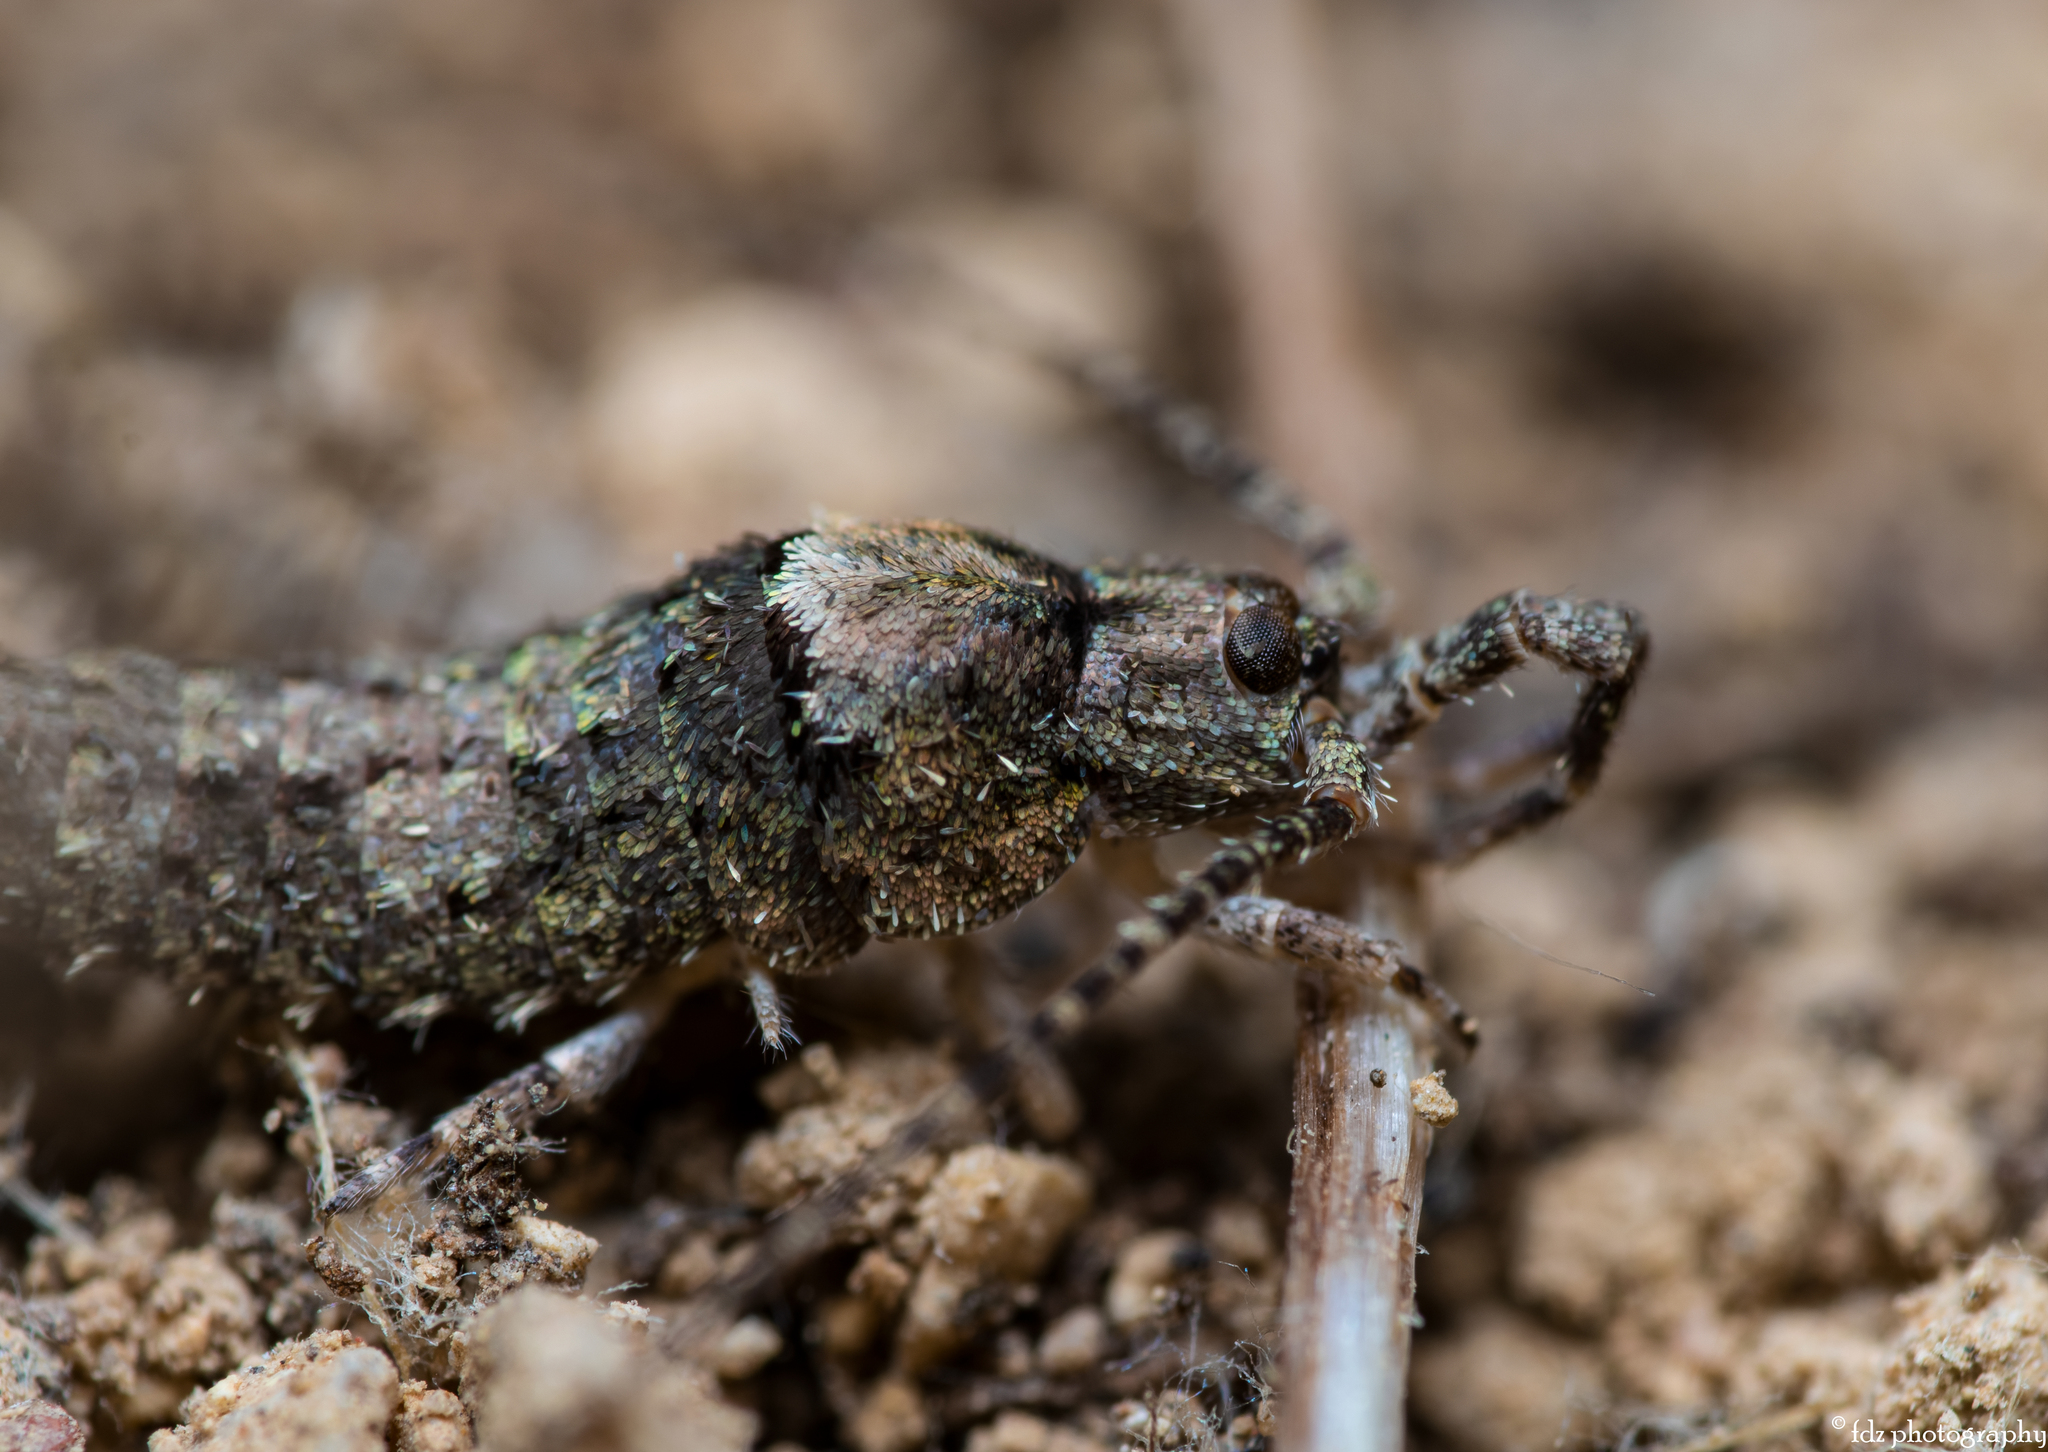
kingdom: Animalia
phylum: Arthropoda
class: Insecta
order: Archaeognatha
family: Machilidae
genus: Trigoniophthalmus
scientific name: Trigoniophthalmus alternatus
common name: Jumping bristletail
